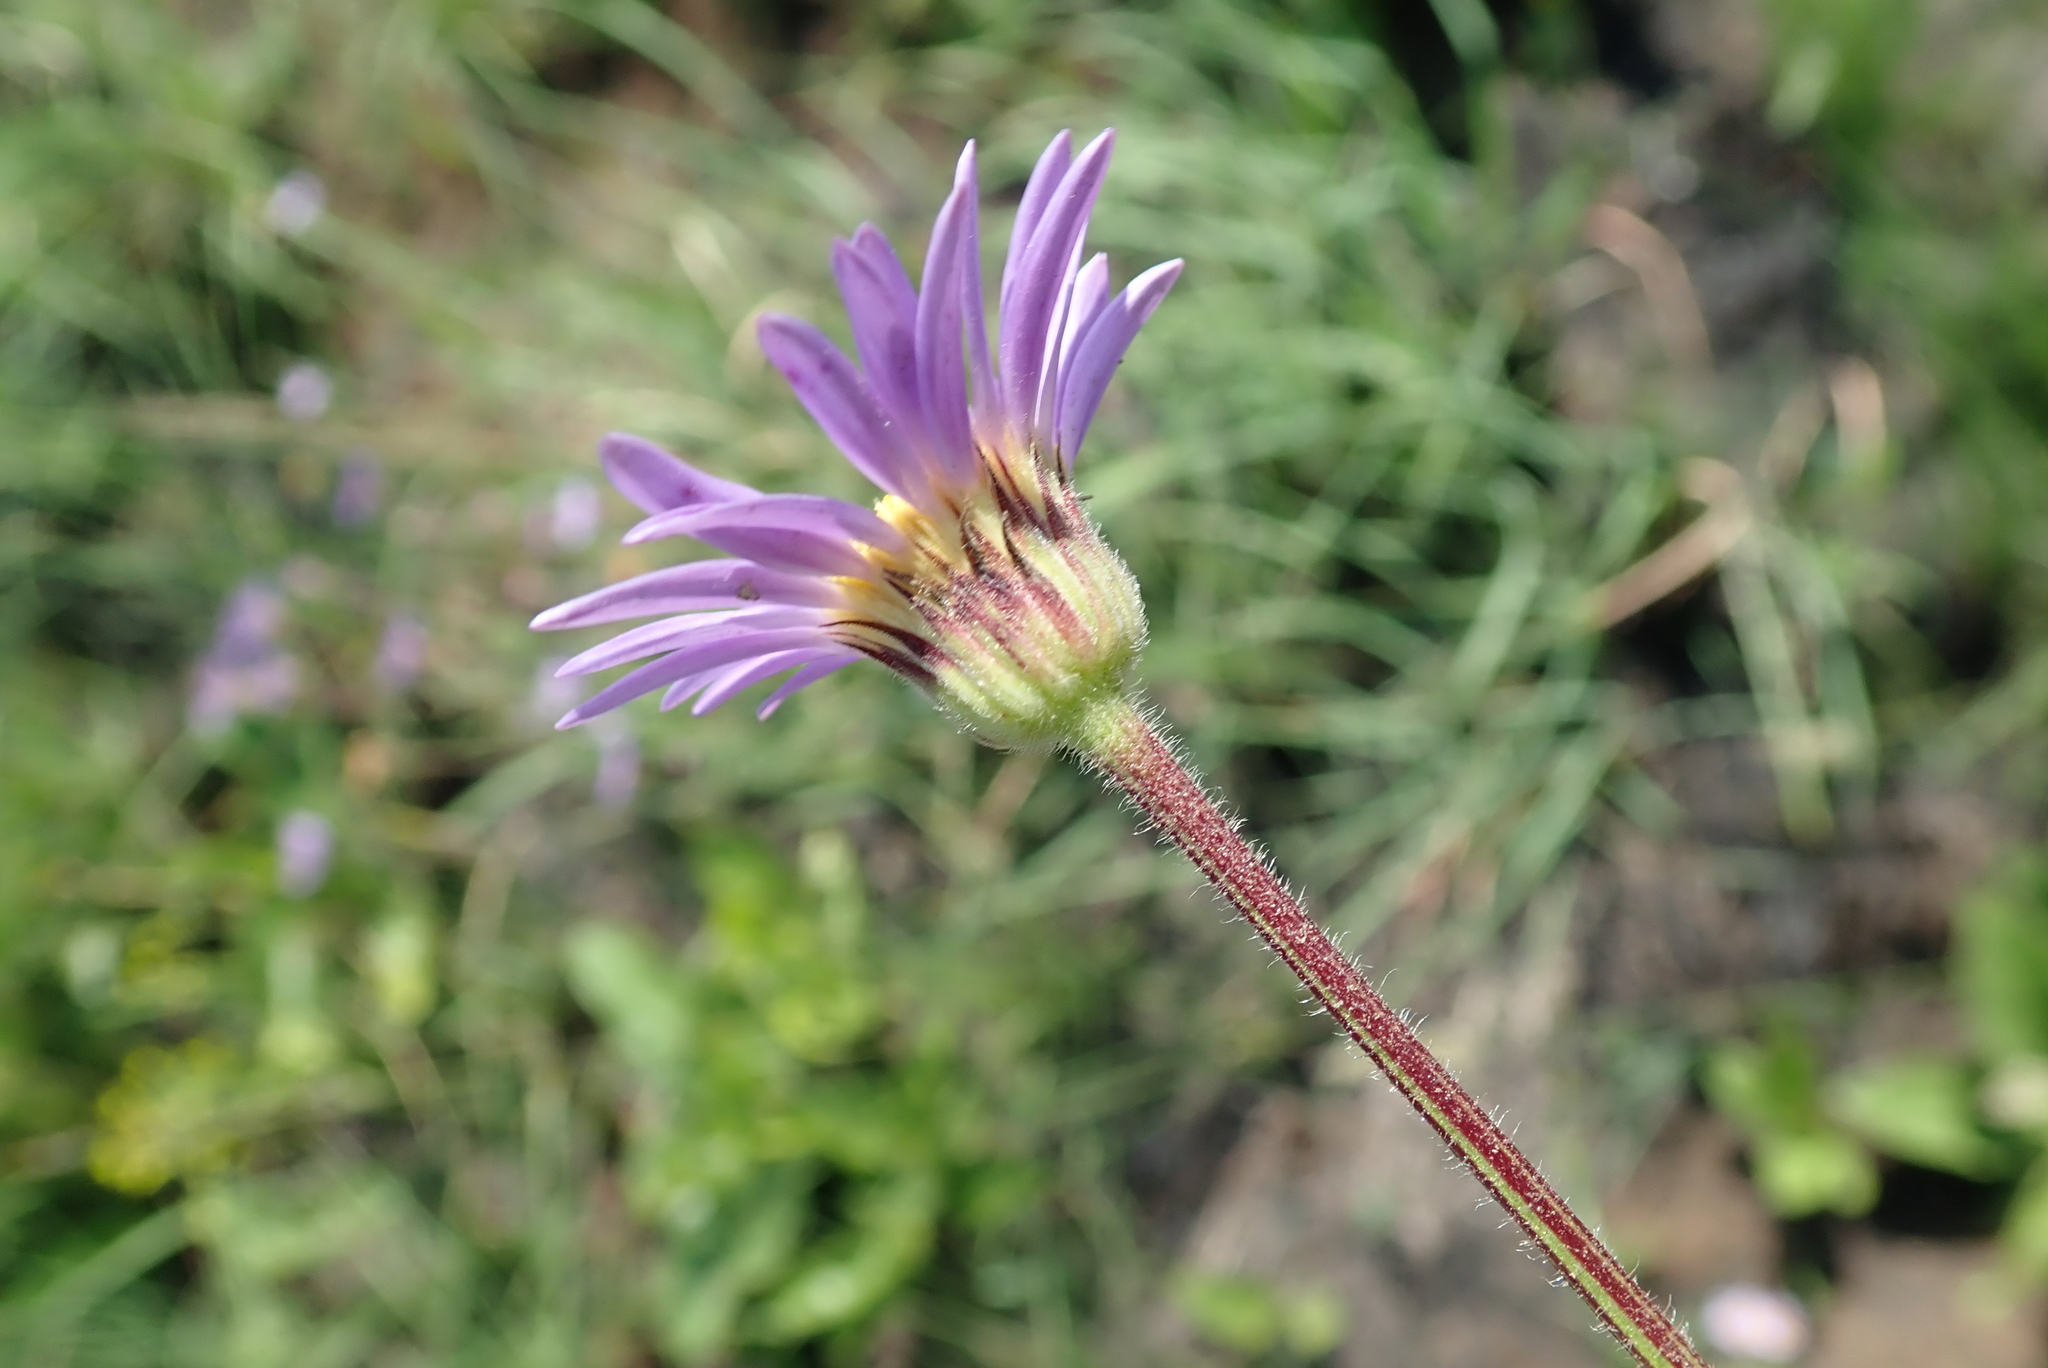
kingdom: Plantae
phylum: Tracheophyta
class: Magnoliopsida
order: Asterales
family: Asteraceae
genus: Afroaster
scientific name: Afroaster hispidus
